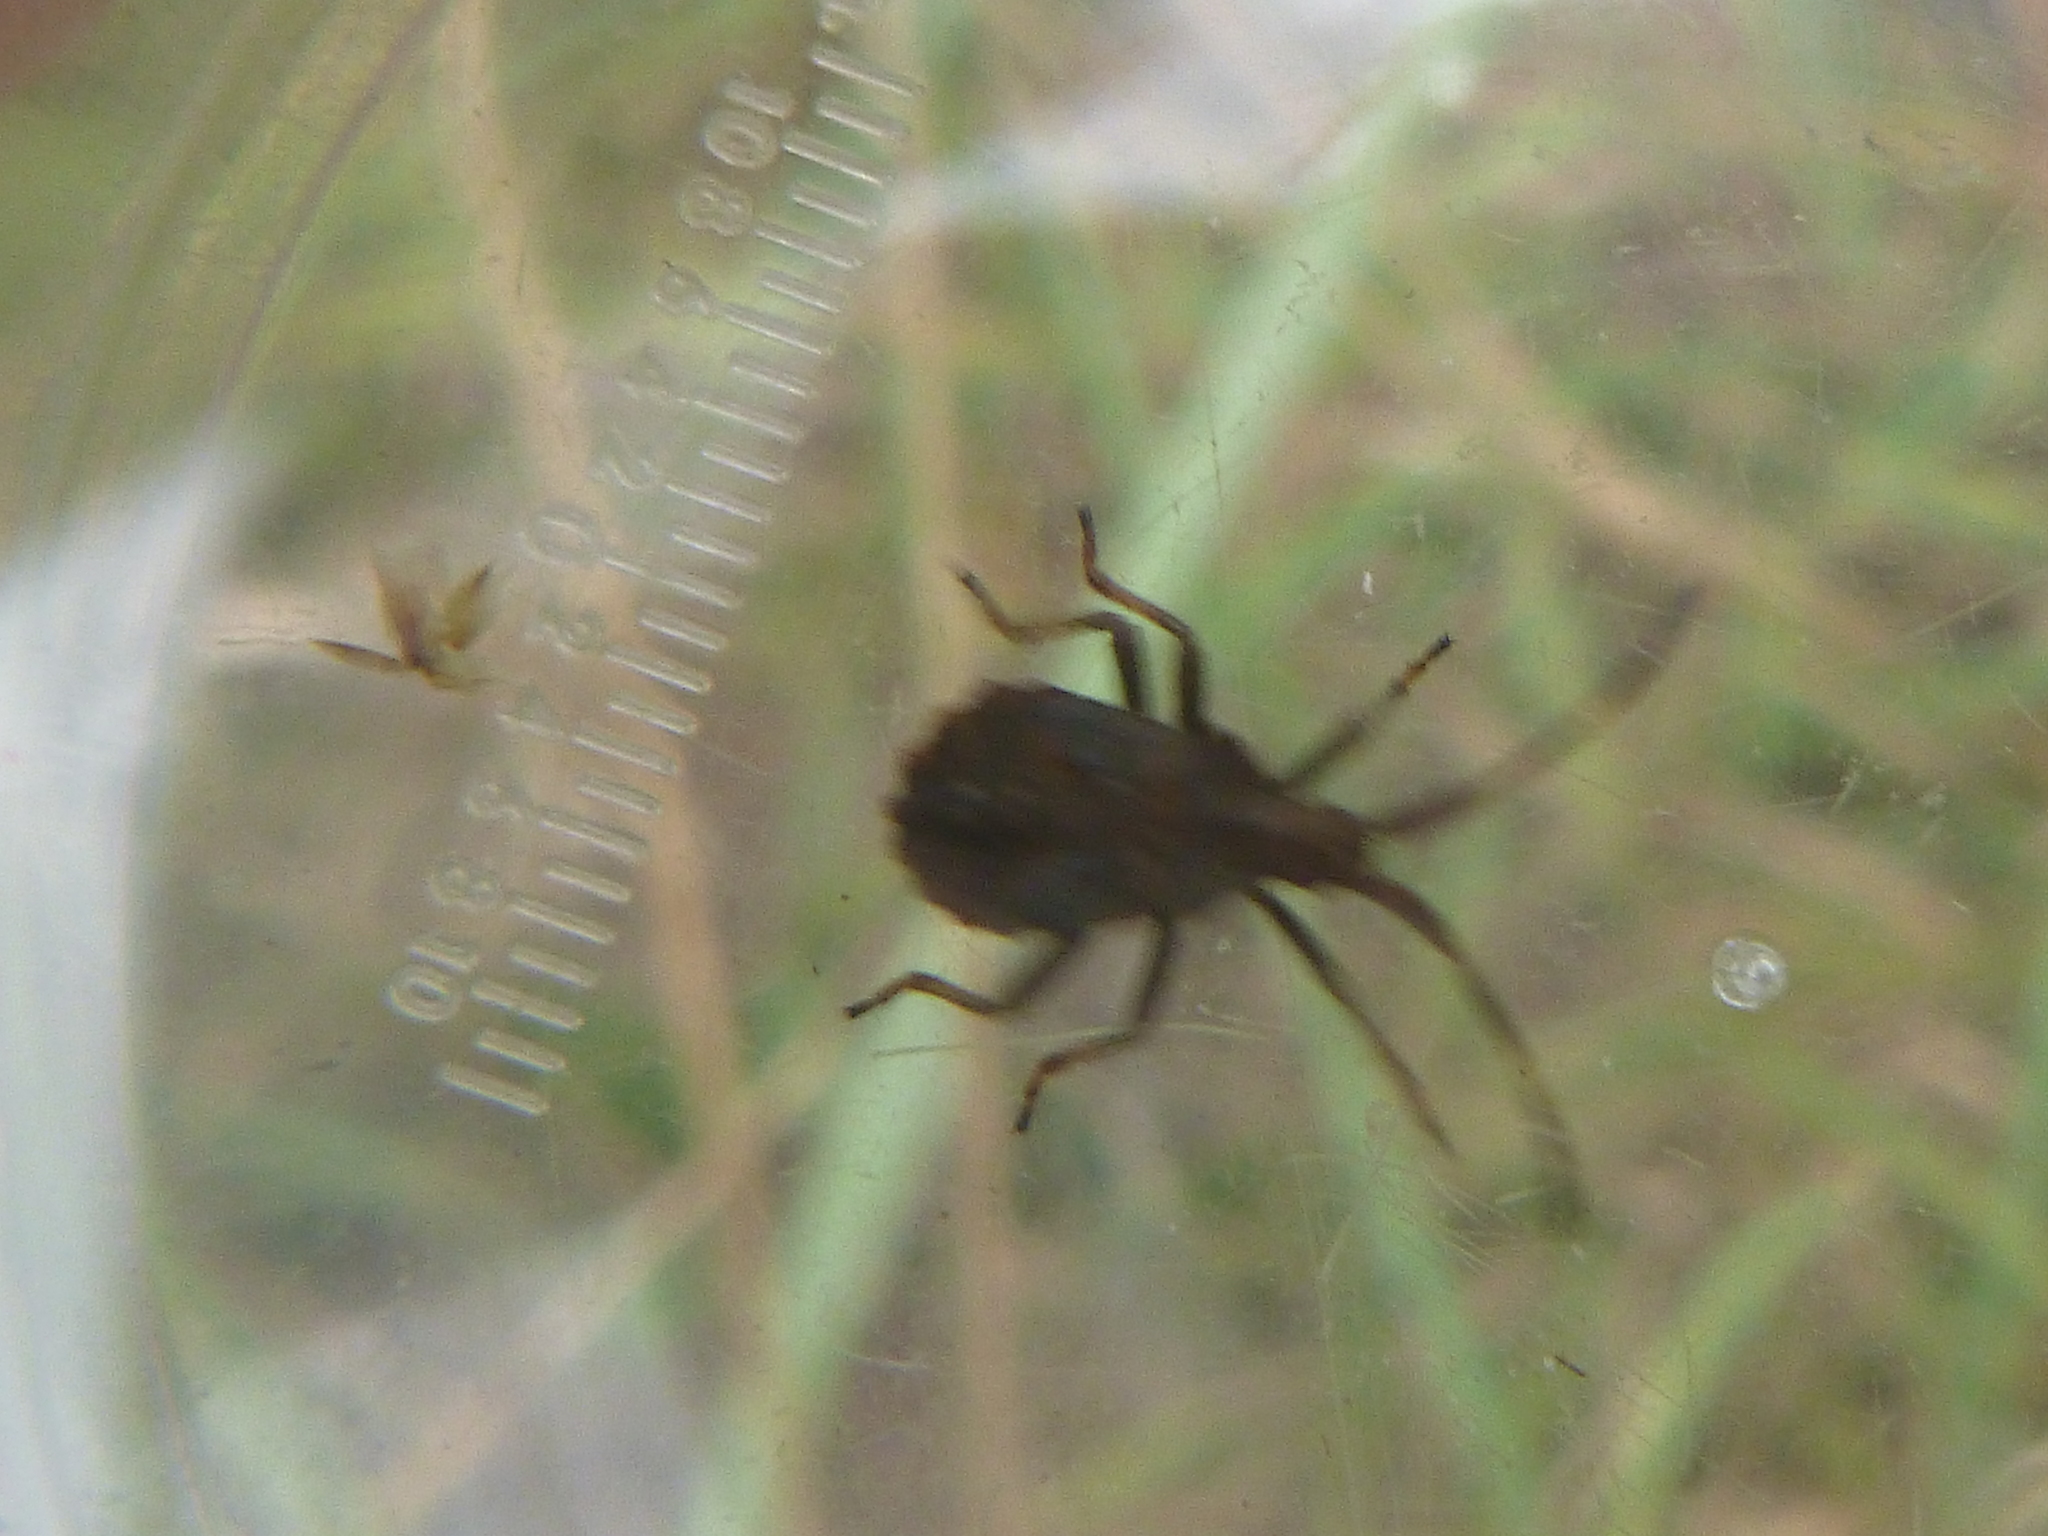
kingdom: Animalia
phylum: Arthropoda
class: Insecta
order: Hemiptera
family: Coreidae
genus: Coreus
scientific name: Coreus marginatus
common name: Dock bug
